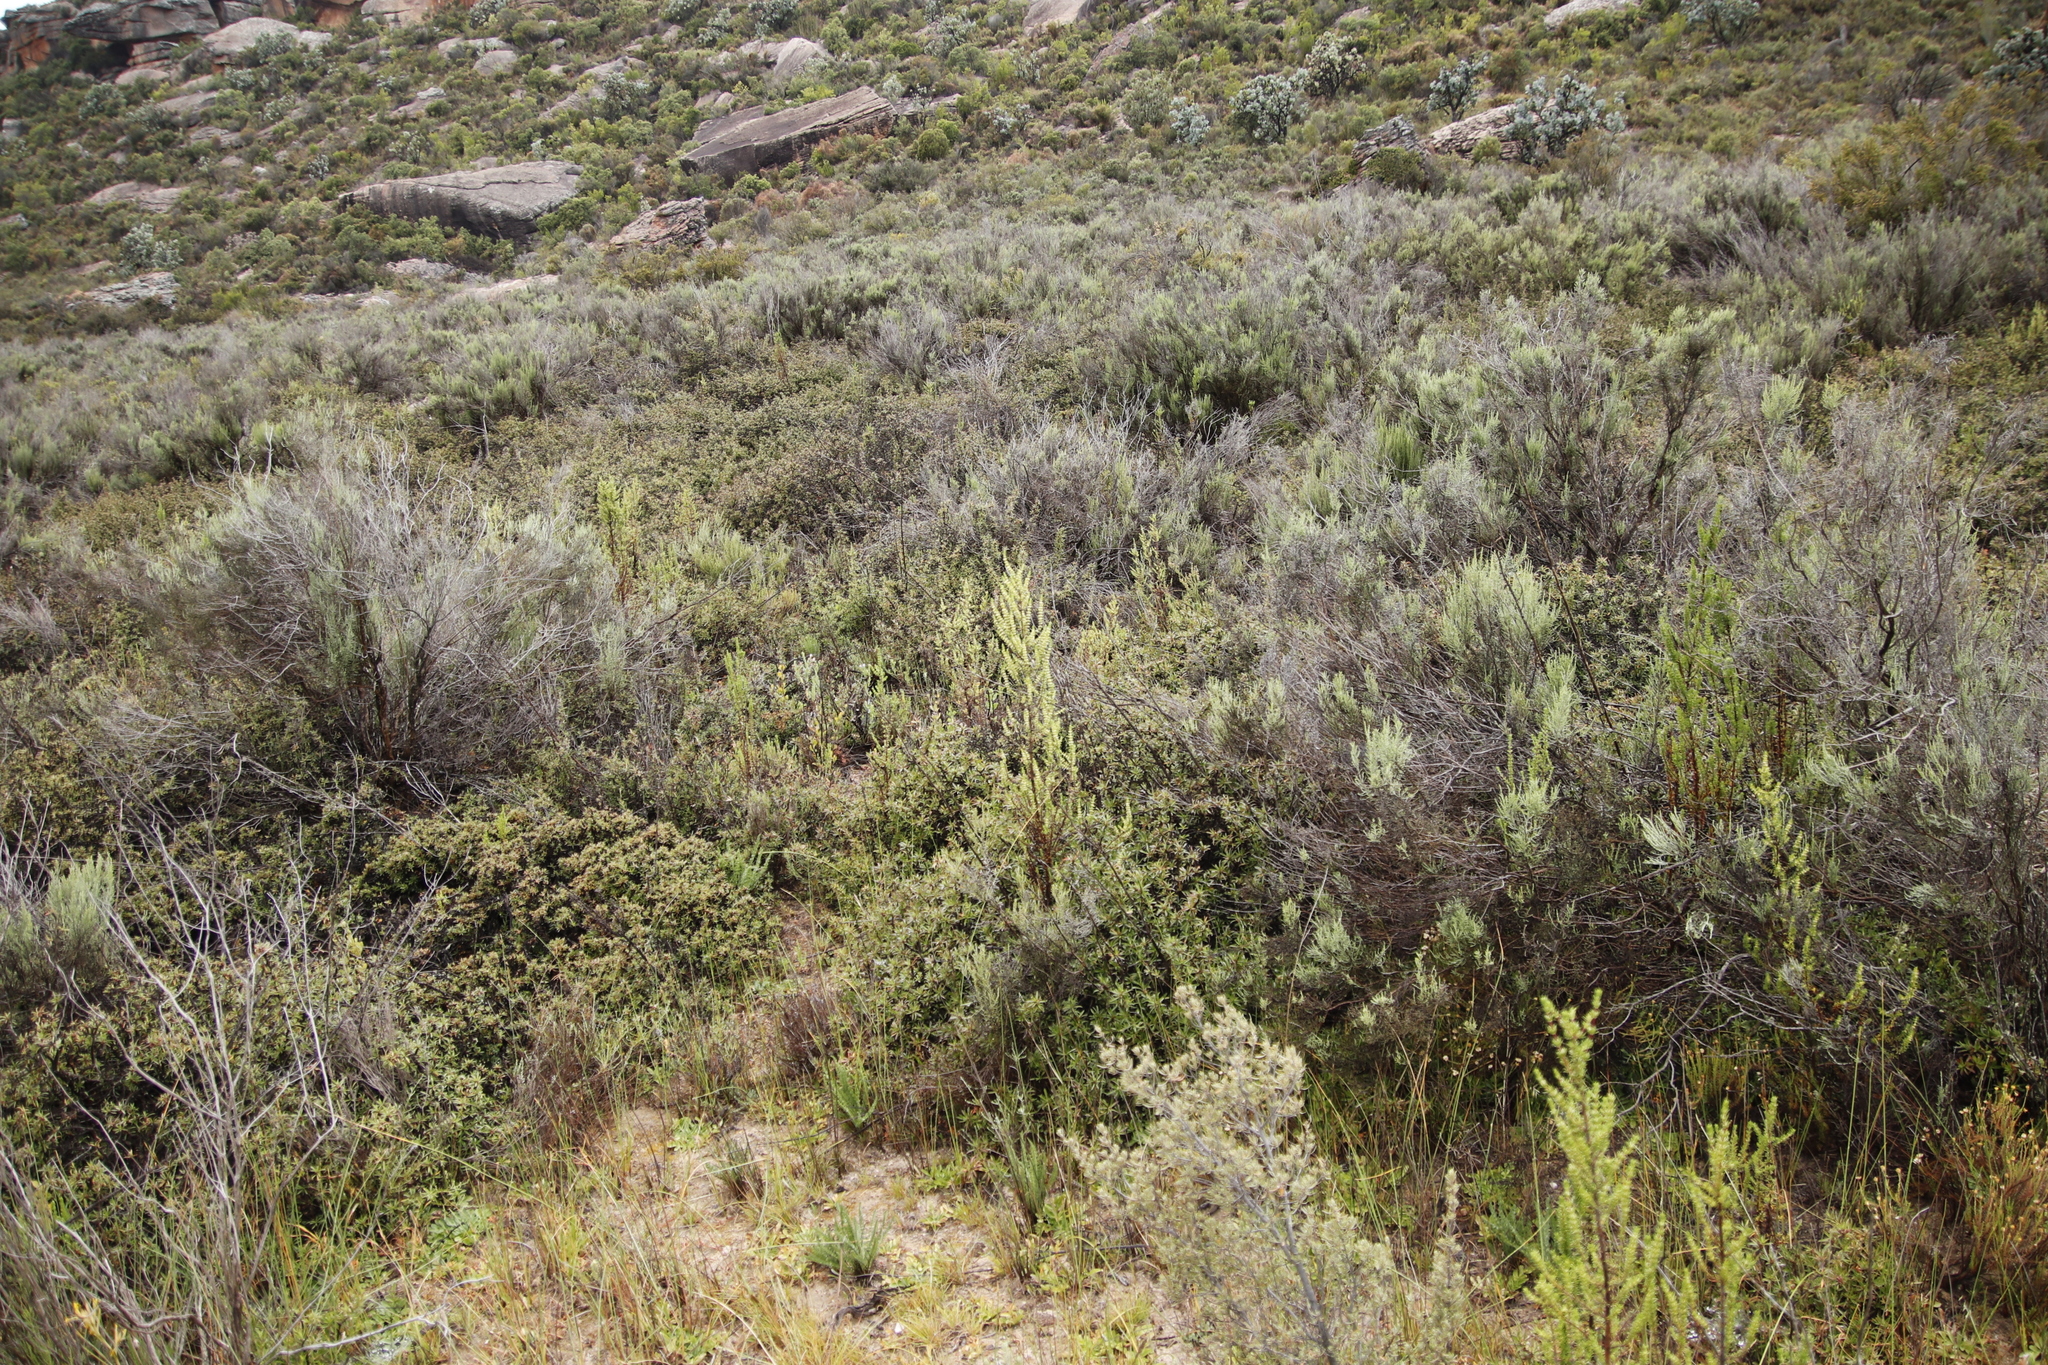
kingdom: Plantae
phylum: Tracheophyta
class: Magnoliopsida
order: Asterales
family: Asteraceae
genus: Dicerothamnus
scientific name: Dicerothamnus rhinocerotis
